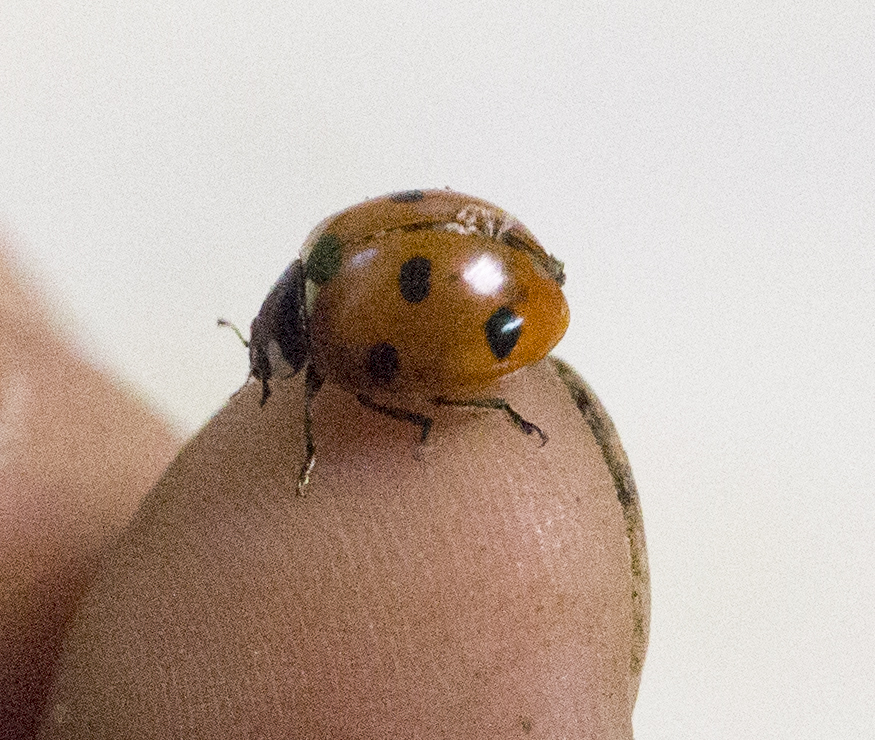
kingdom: Animalia
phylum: Arthropoda
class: Insecta
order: Coleoptera
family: Coccinellidae
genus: Coccinella
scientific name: Coccinella septempunctata
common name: Sevenspotted lady beetle
